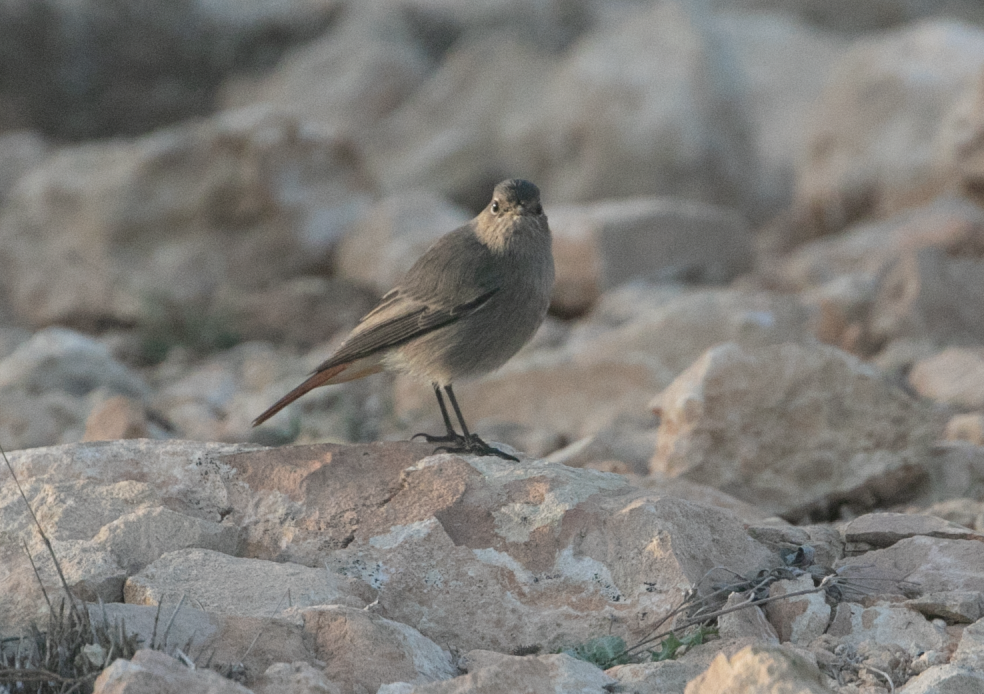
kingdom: Animalia
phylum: Chordata
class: Aves
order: Passeriformes
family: Muscicapidae
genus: Phoenicurus
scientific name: Phoenicurus ochruros
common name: Black redstart
